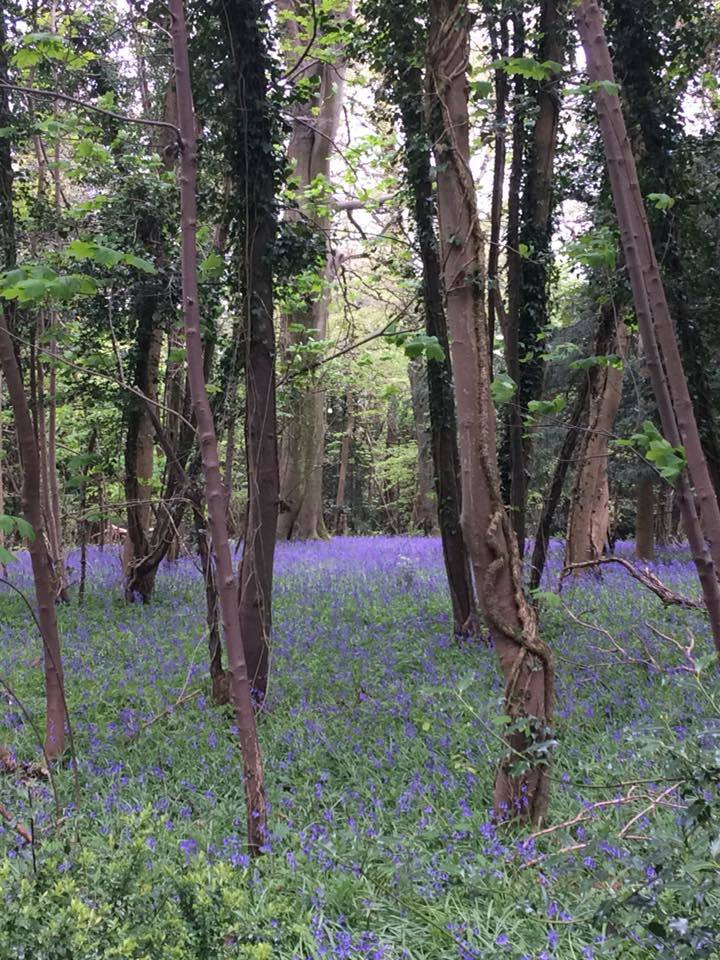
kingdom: Plantae
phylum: Tracheophyta
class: Liliopsida
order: Asparagales
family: Asparagaceae
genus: Hyacinthoides
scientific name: Hyacinthoides non-scripta
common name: Bluebell
